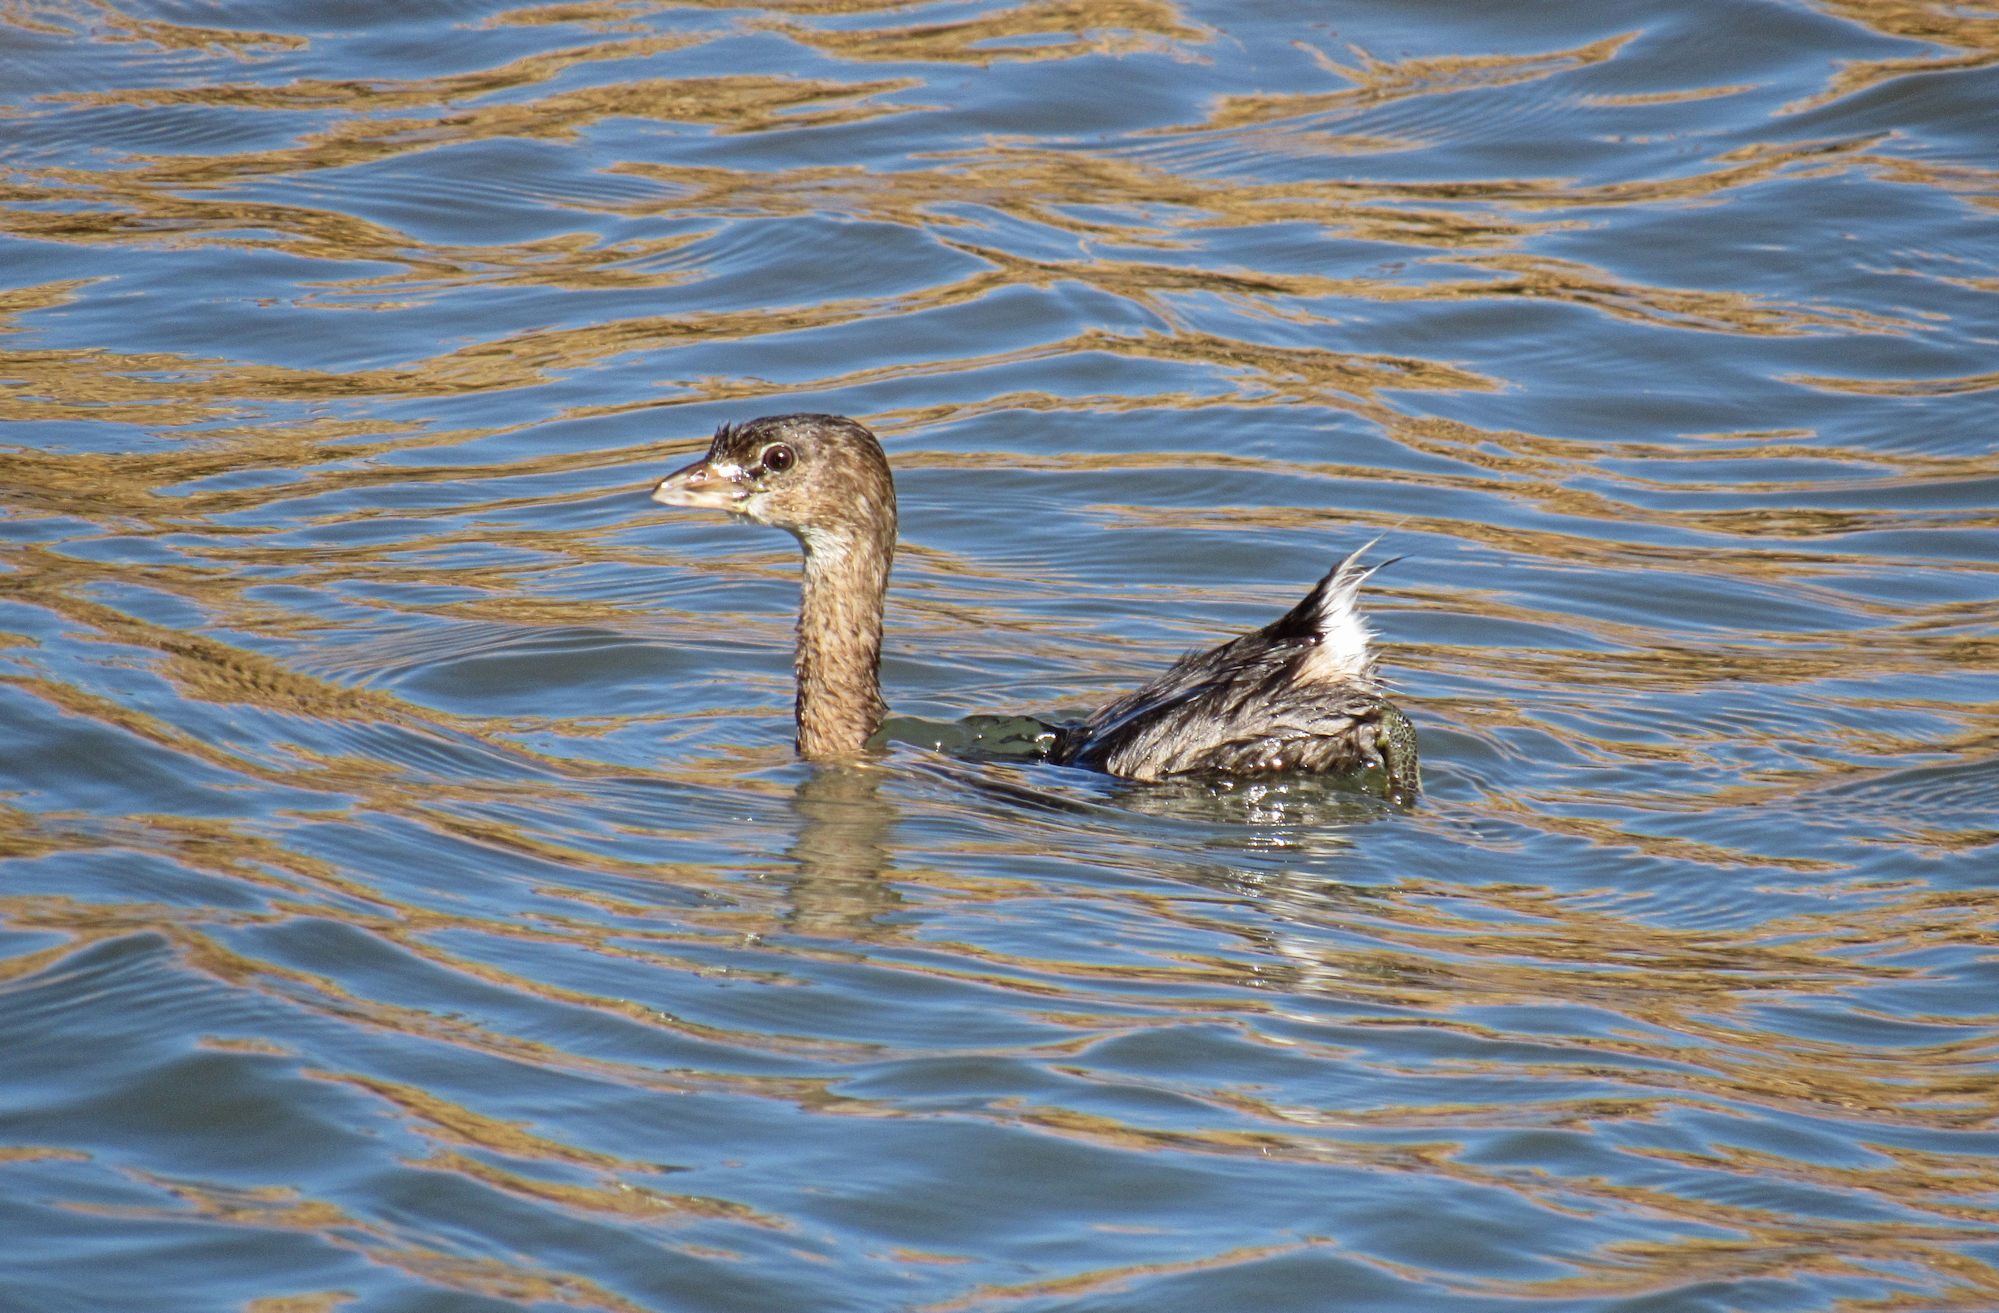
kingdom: Animalia
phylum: Chordata
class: Aves
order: Podicipediformes
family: Podicipedidae
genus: Podilymbus
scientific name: Podilymbus podiceps
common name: Pied-billed grebe
